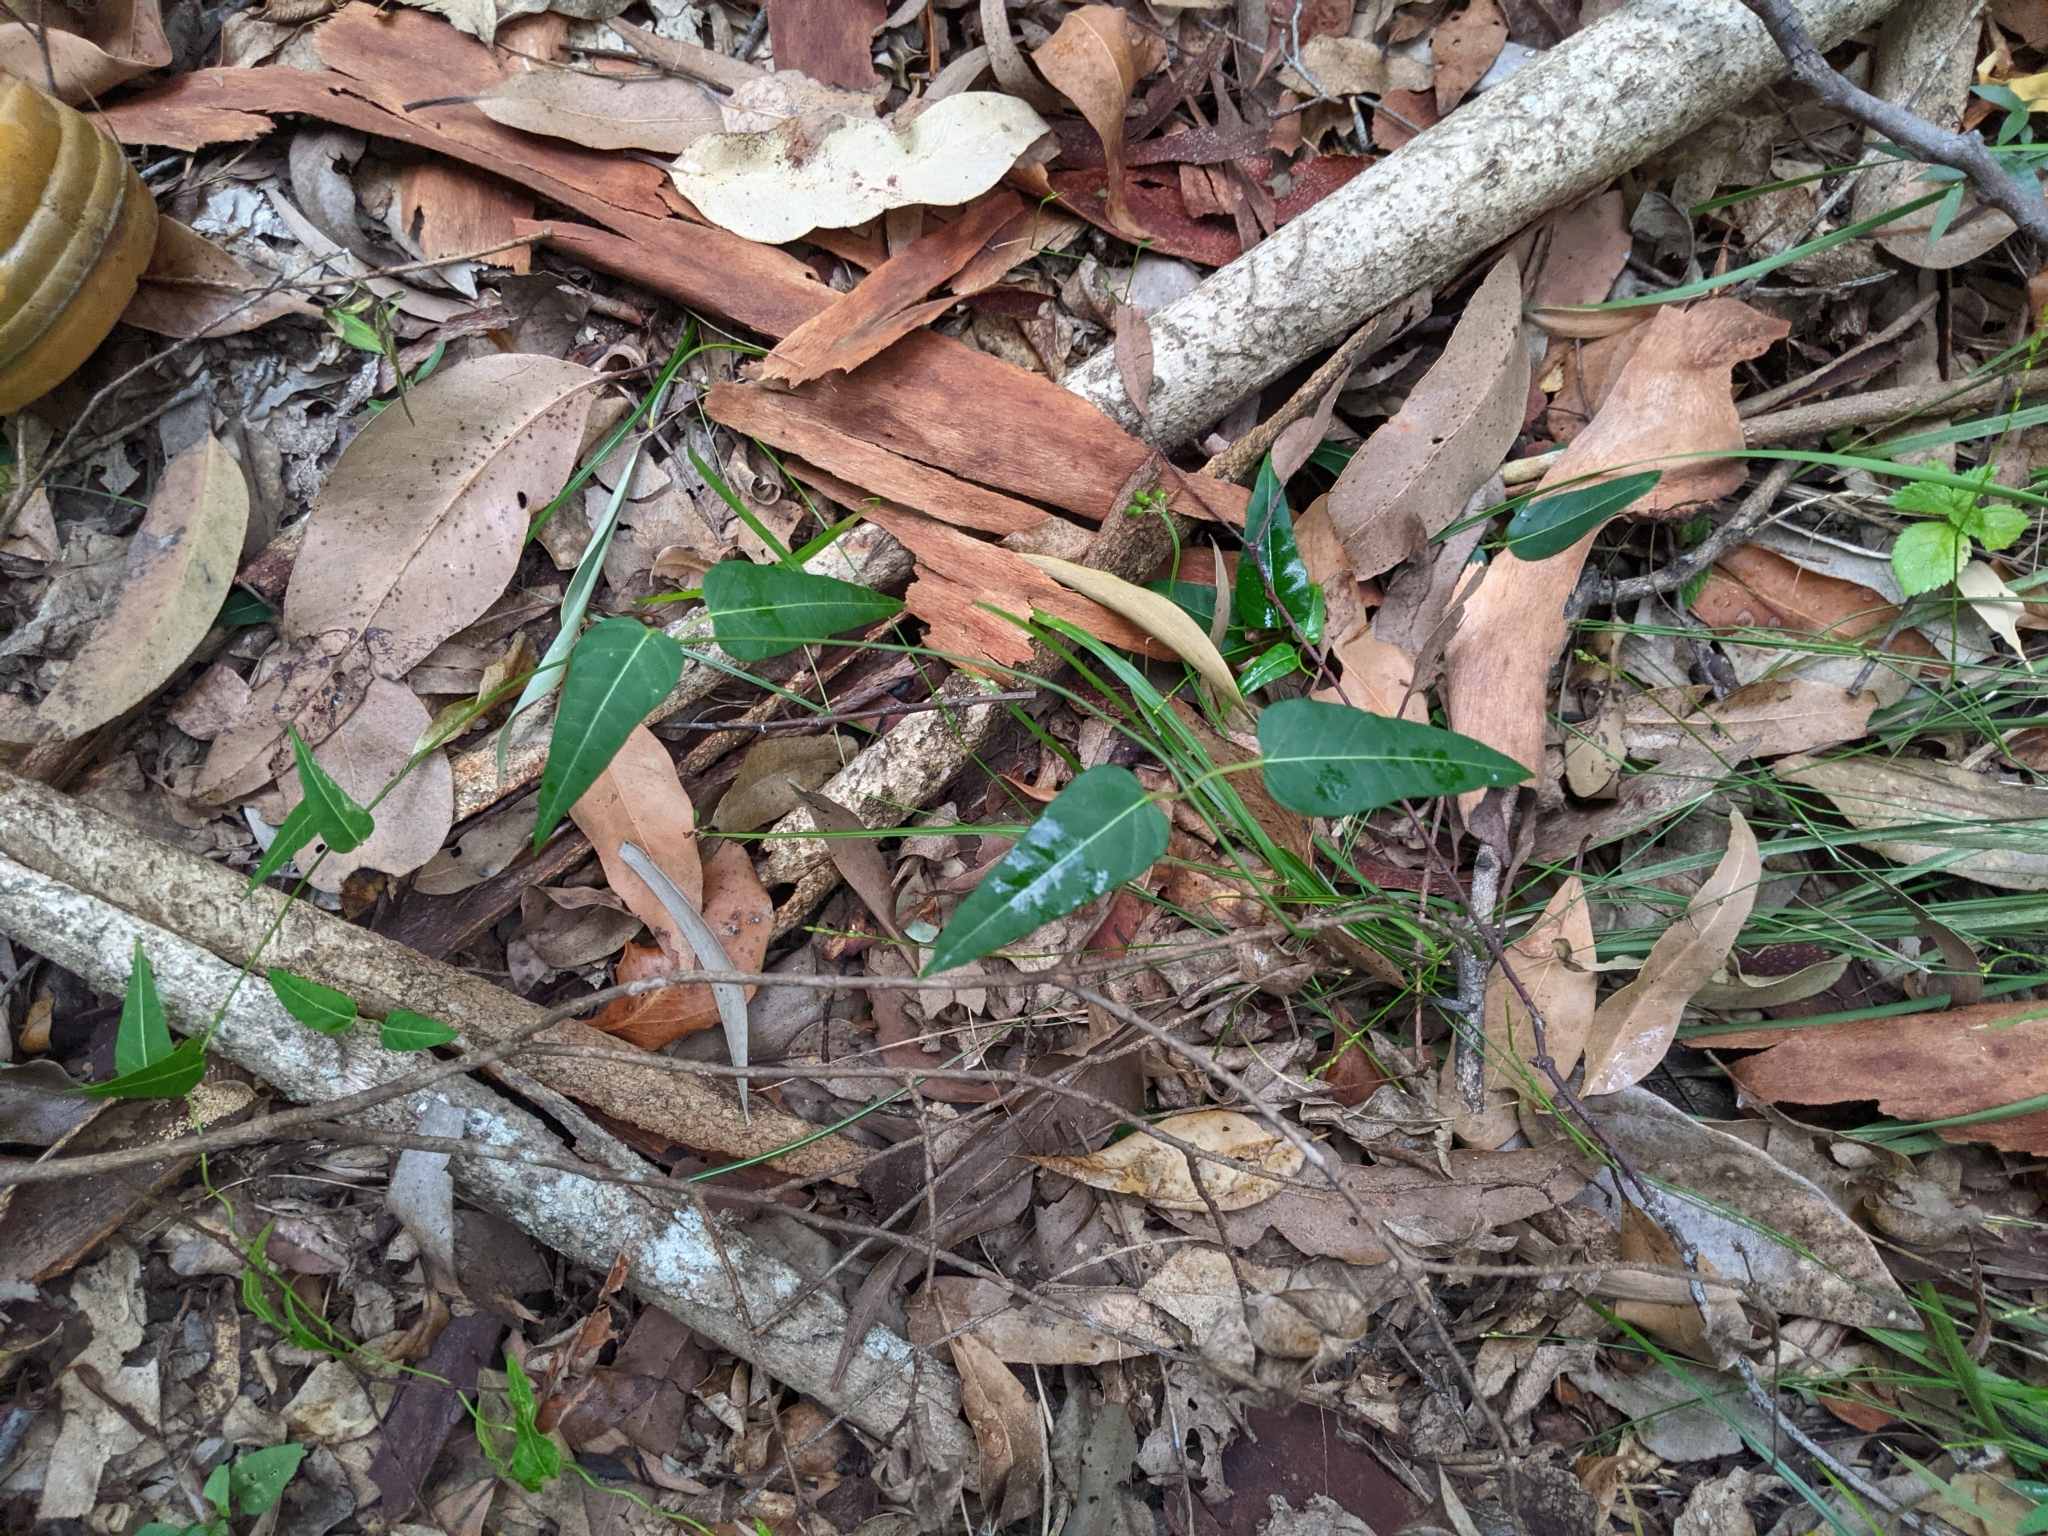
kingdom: Plantae
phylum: Tracheophyta
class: Magnoliopsida
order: Gentianales
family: Apocynaceae
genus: Leichhardtia
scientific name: Leichhardtia coronata
